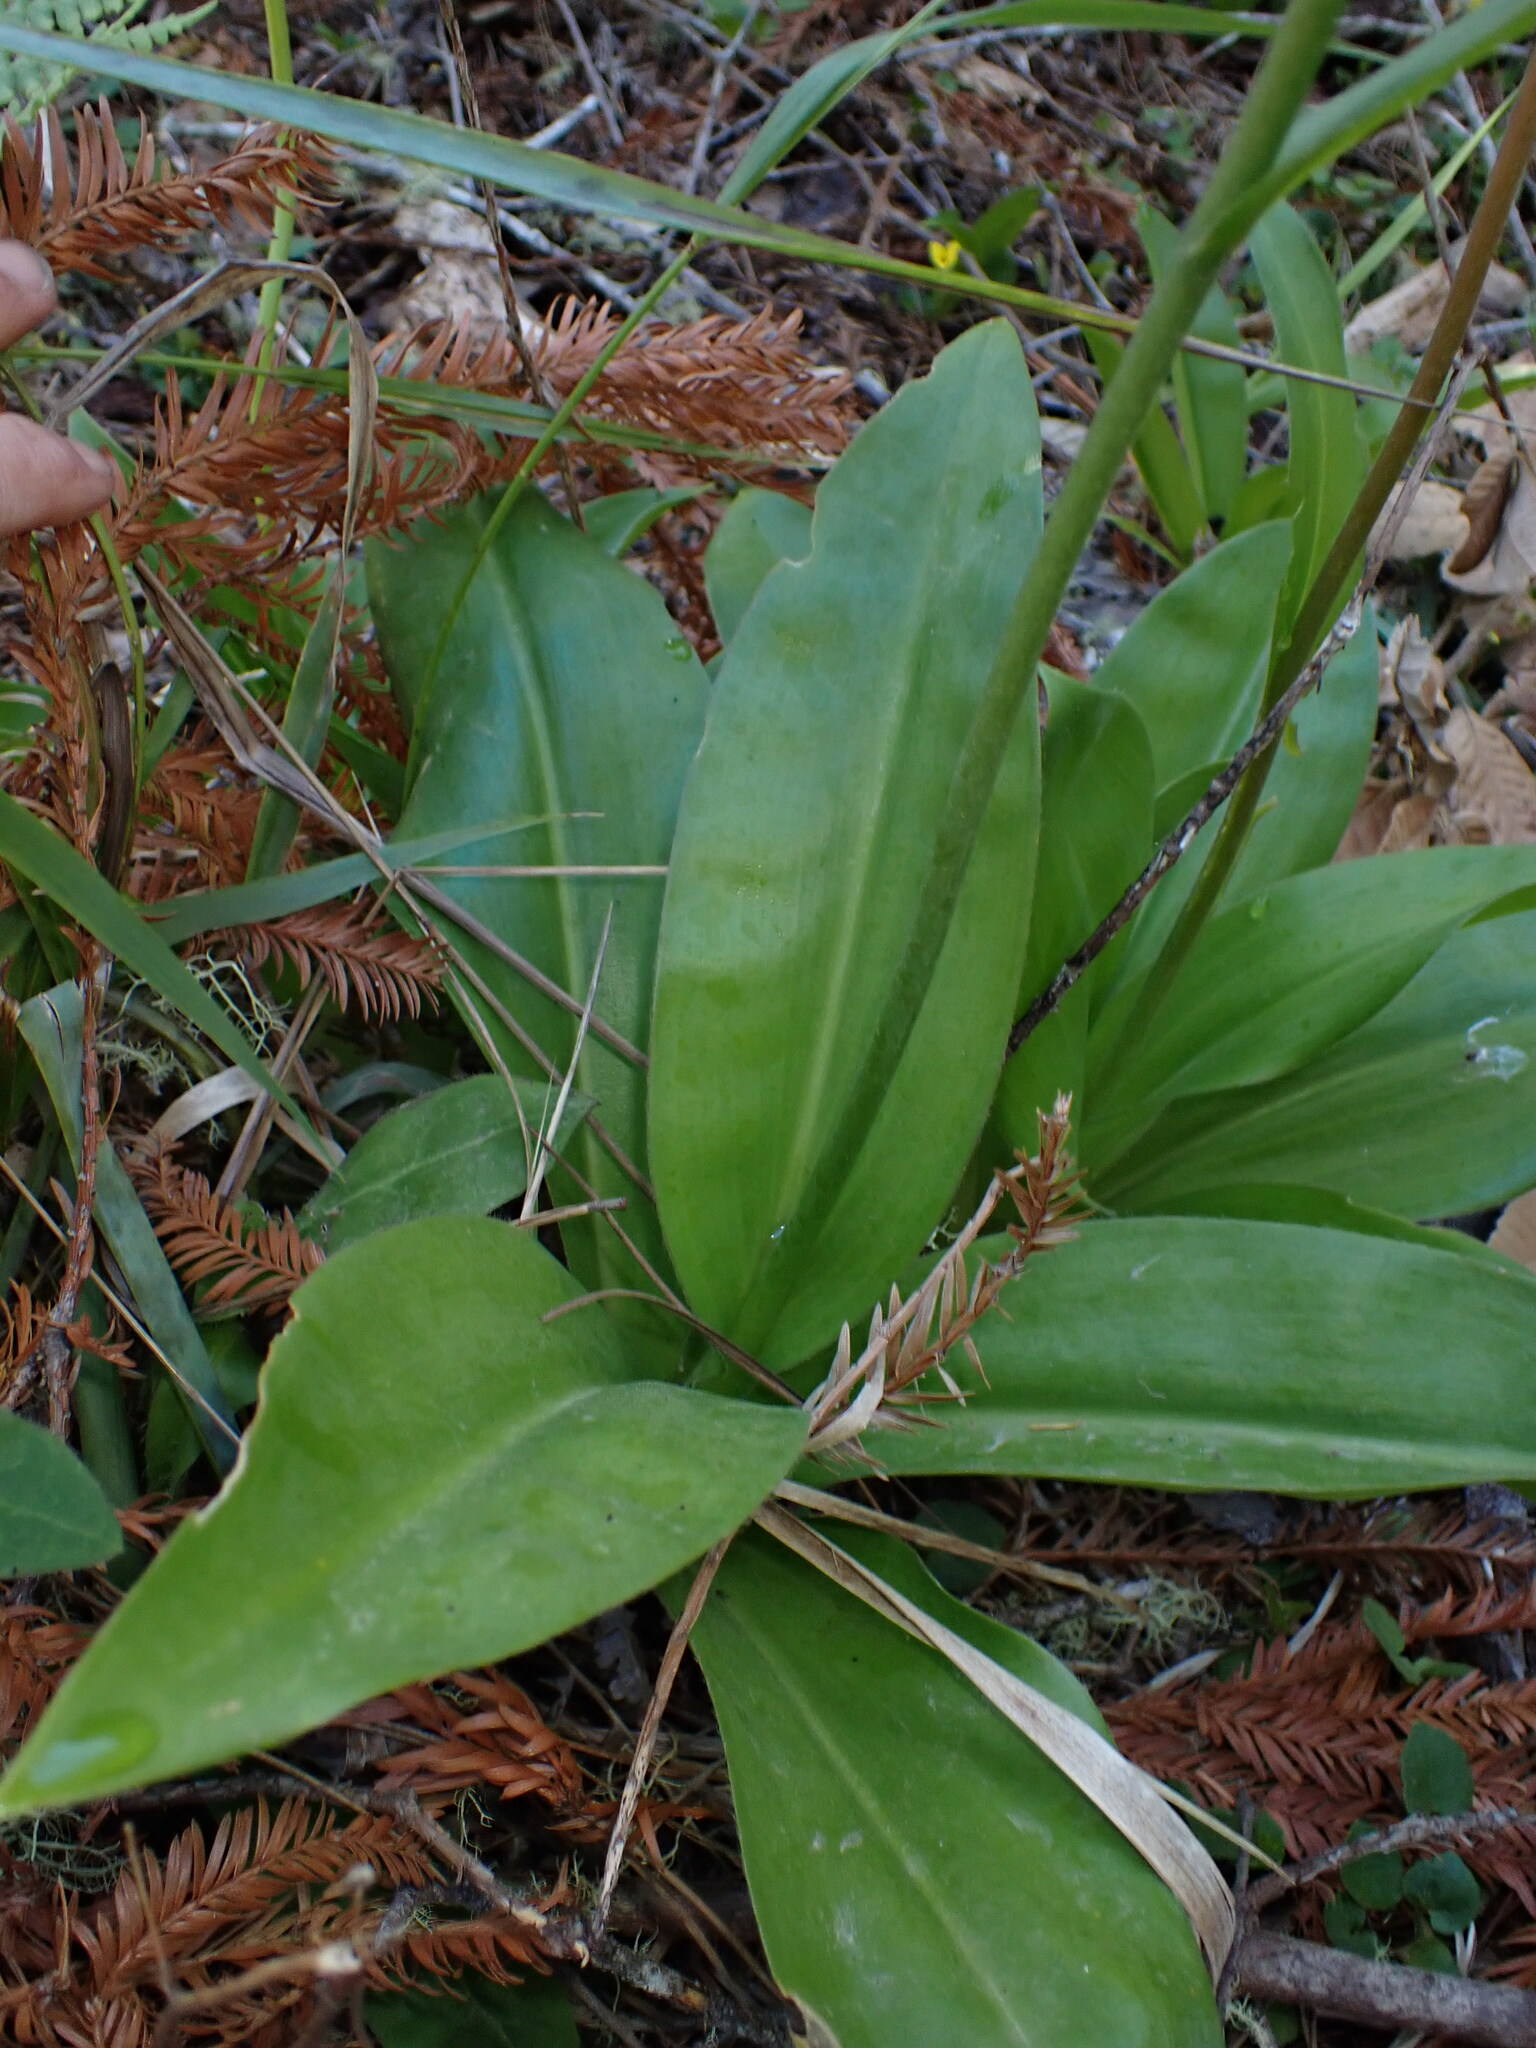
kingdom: Plantae
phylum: Tracheophyta
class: Liliopsida
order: Liliales
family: Liliaceae
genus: Clintonia
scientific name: Clintonia andrewsiana
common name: Red clintonia
